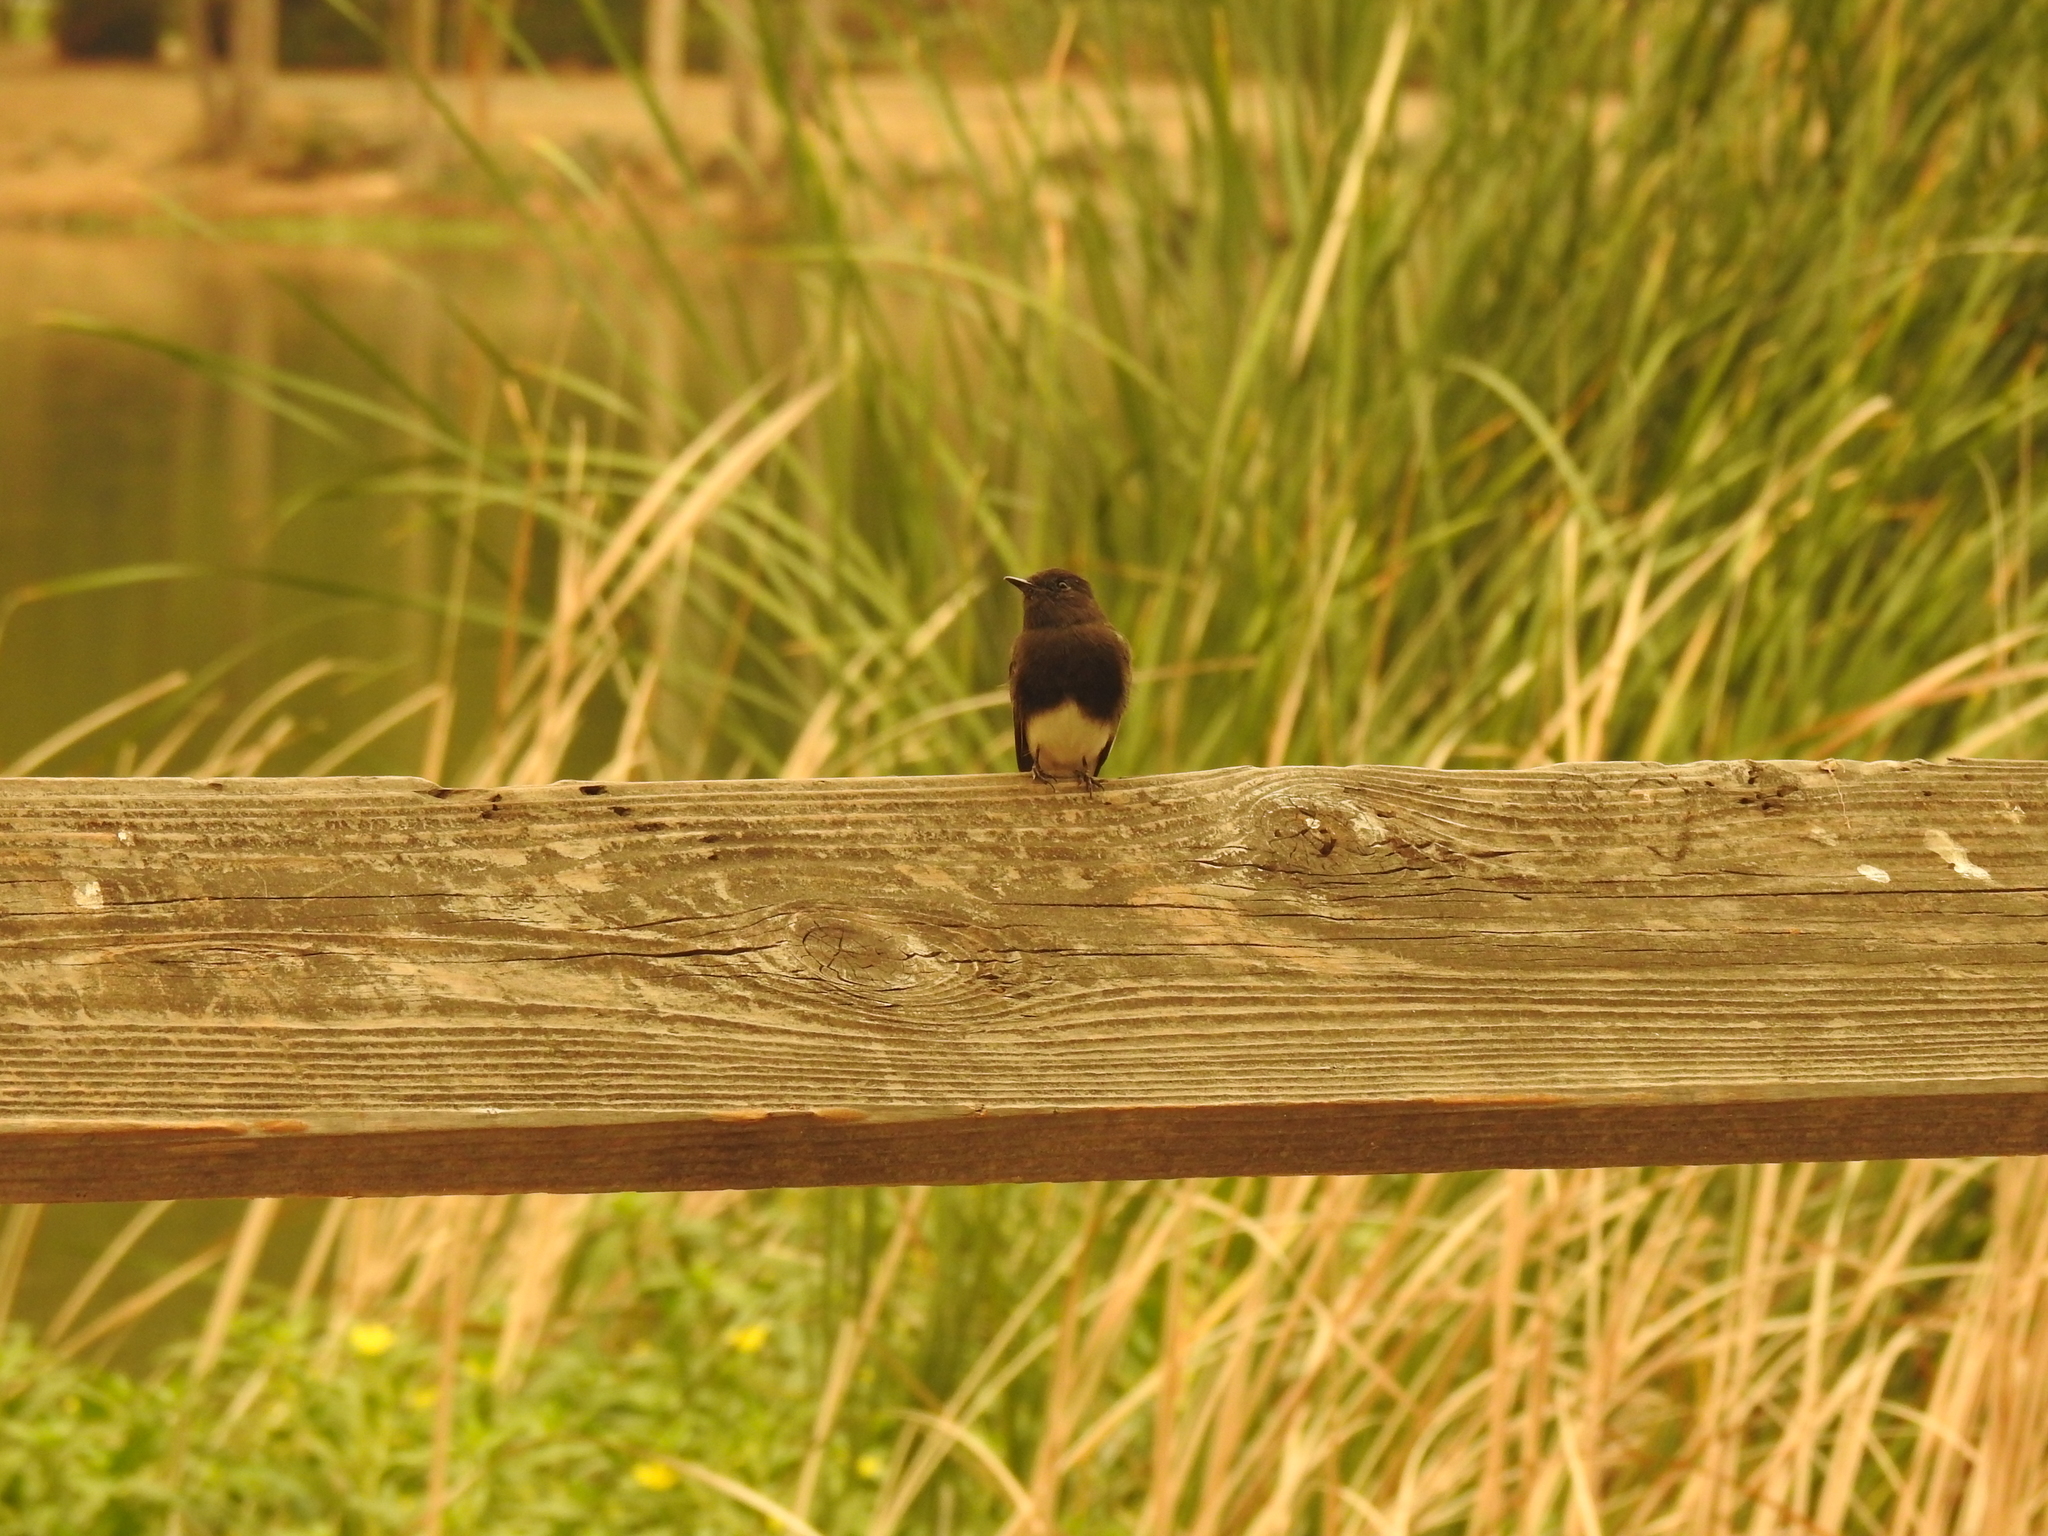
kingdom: Animalia
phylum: Chordata
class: Aves
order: Passeriformes
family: Tyrannidae
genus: Sayornis
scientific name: Sayornis nigricans
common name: Black phoebe
